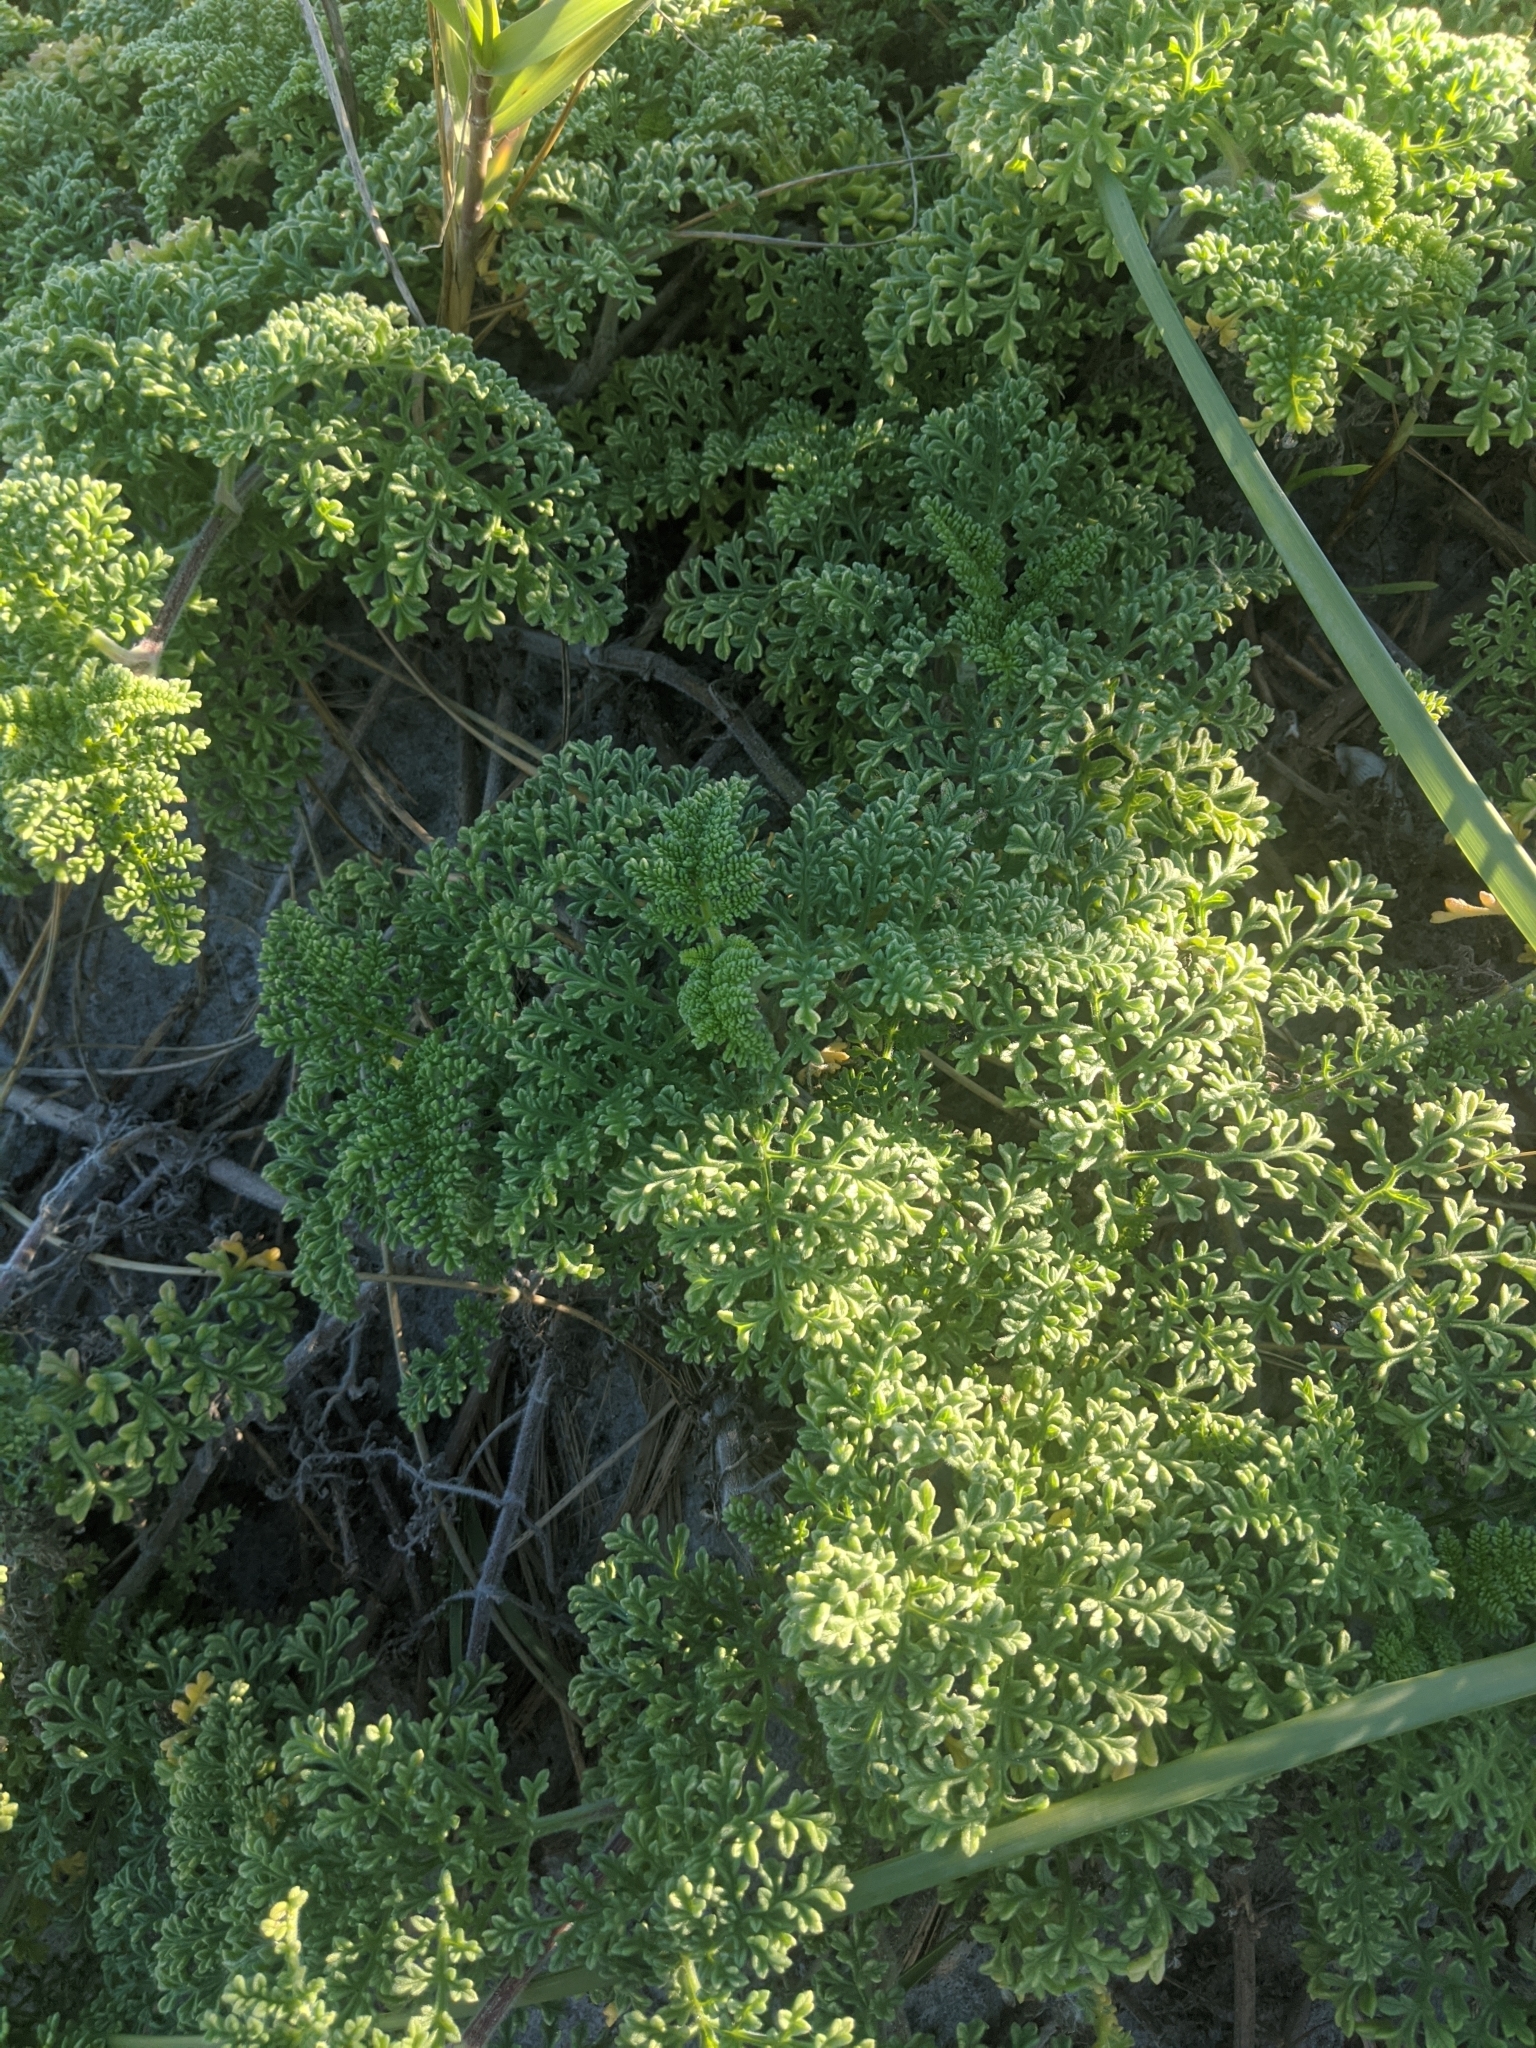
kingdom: Plantae
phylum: Tracheophyta
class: Magnoliopsida
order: Asterales
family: Asteraceae
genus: Ambrosia
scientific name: Ambrosia hispida
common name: Coastal ragweed
